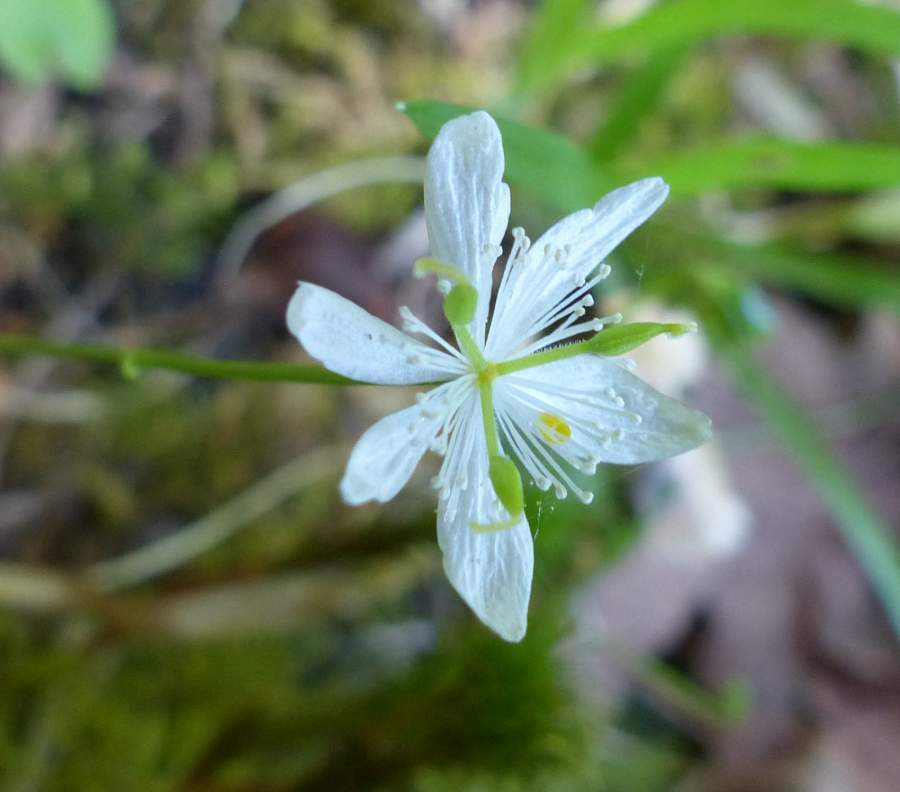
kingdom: Plantae
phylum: Tracheophyta
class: Magnoliopsida
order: Ranunculales
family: Ranunculaceae
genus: Coptis
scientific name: Coptis trifolia
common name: Canker-root
